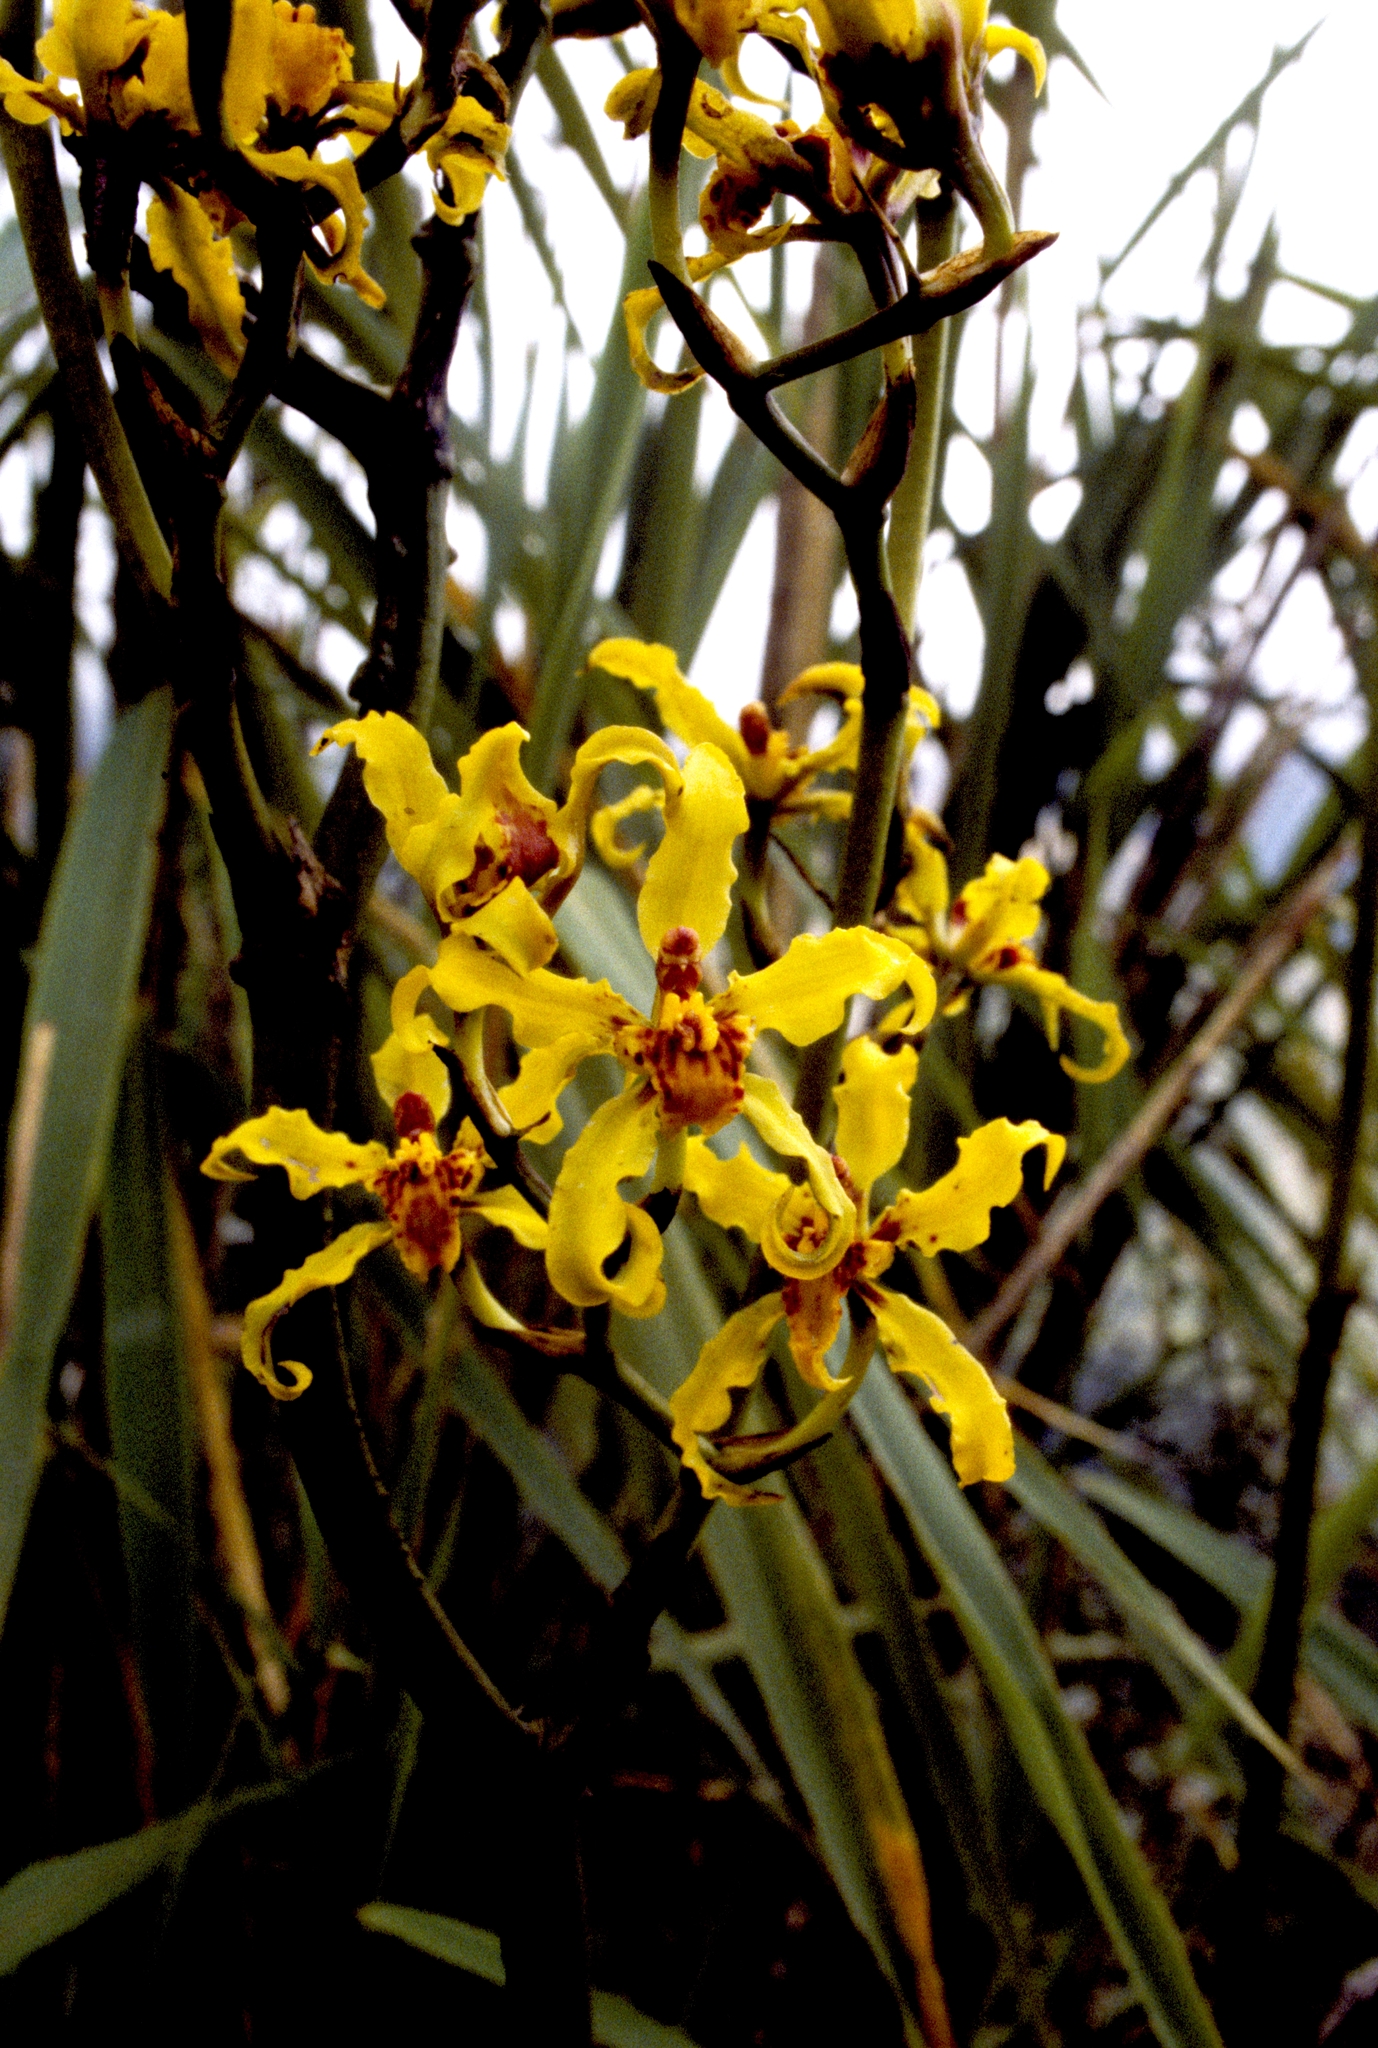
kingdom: Plantae
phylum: Tracheophyta
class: Liliopsida
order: Asparagales
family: Orchidaceae
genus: Cyrtochilum
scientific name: Cyrtochilum auropurpureum
